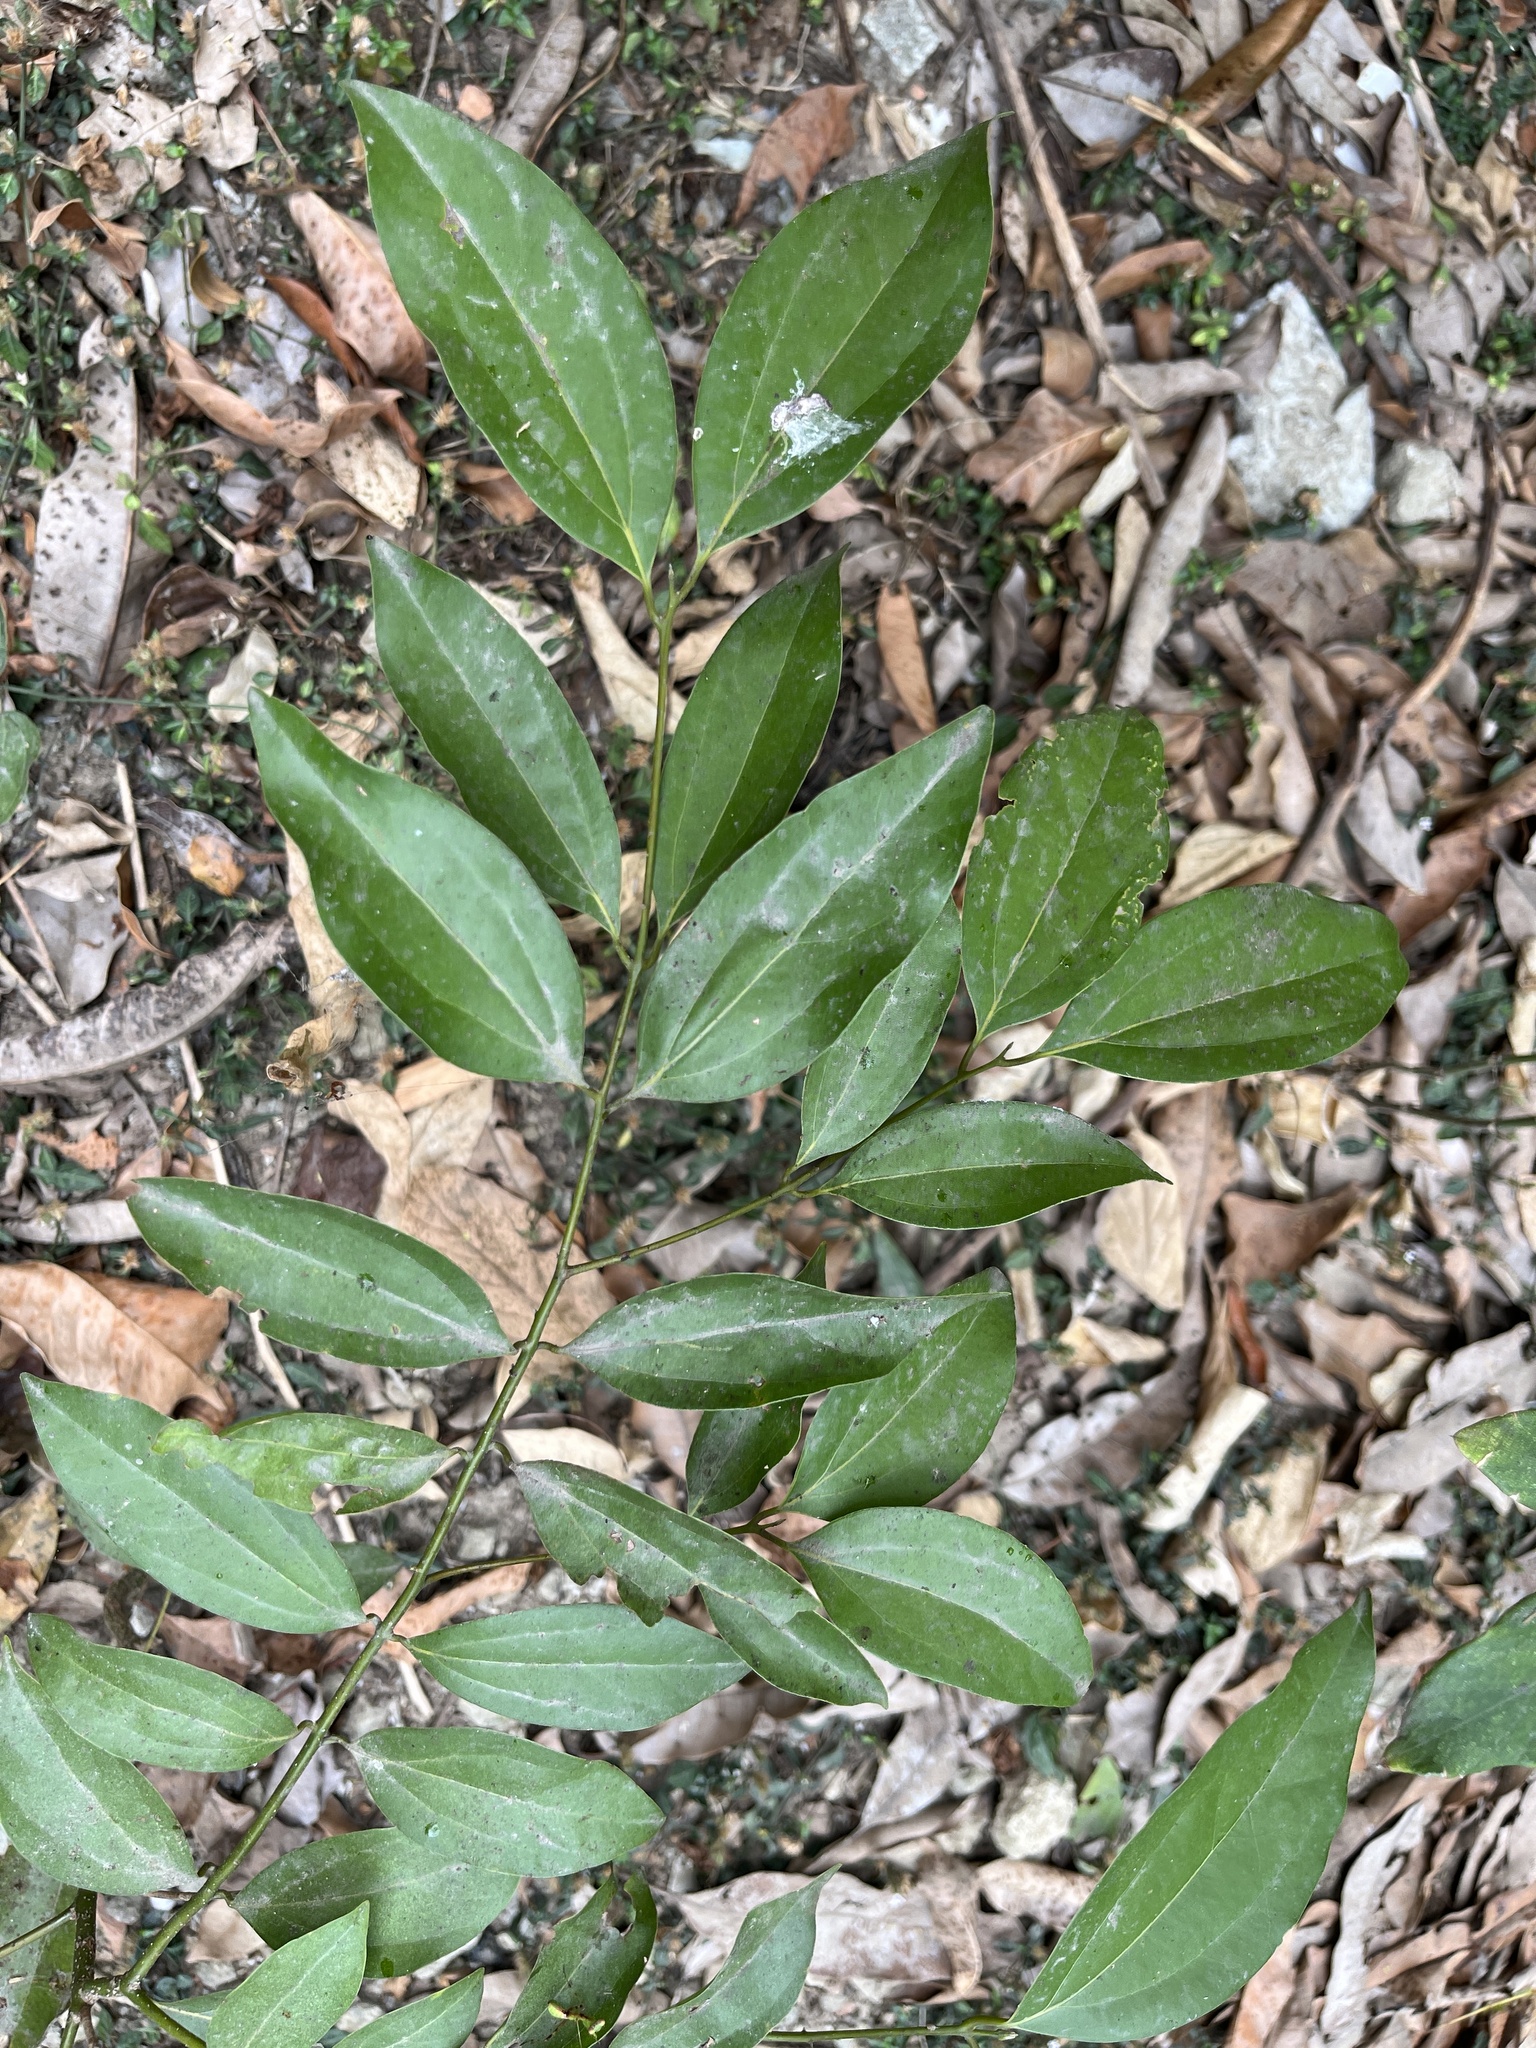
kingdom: Plantae
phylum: Tracheophyta
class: Magnoliopsida
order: Laurales
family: Lauraceae
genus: Cinnamomum
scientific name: Cinnamomum osmophloeum
